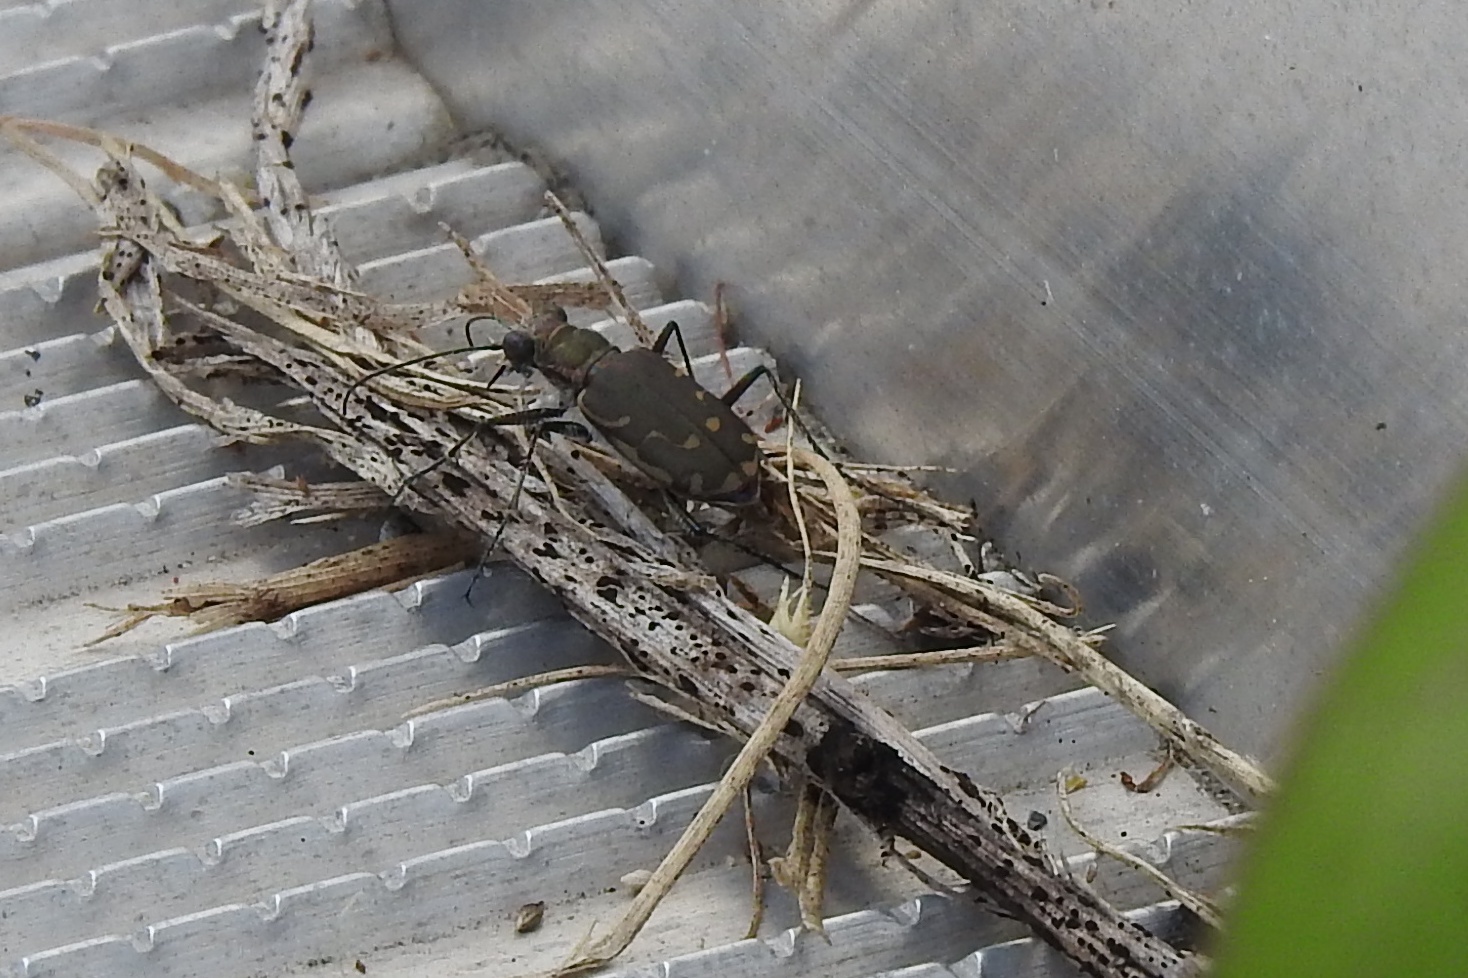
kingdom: Animalia
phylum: Arthropoda
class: Insecta
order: Coleoptera
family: Carabidae
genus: Cicindela
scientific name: Cicindela repanda
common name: Bronzed tiger beetle
